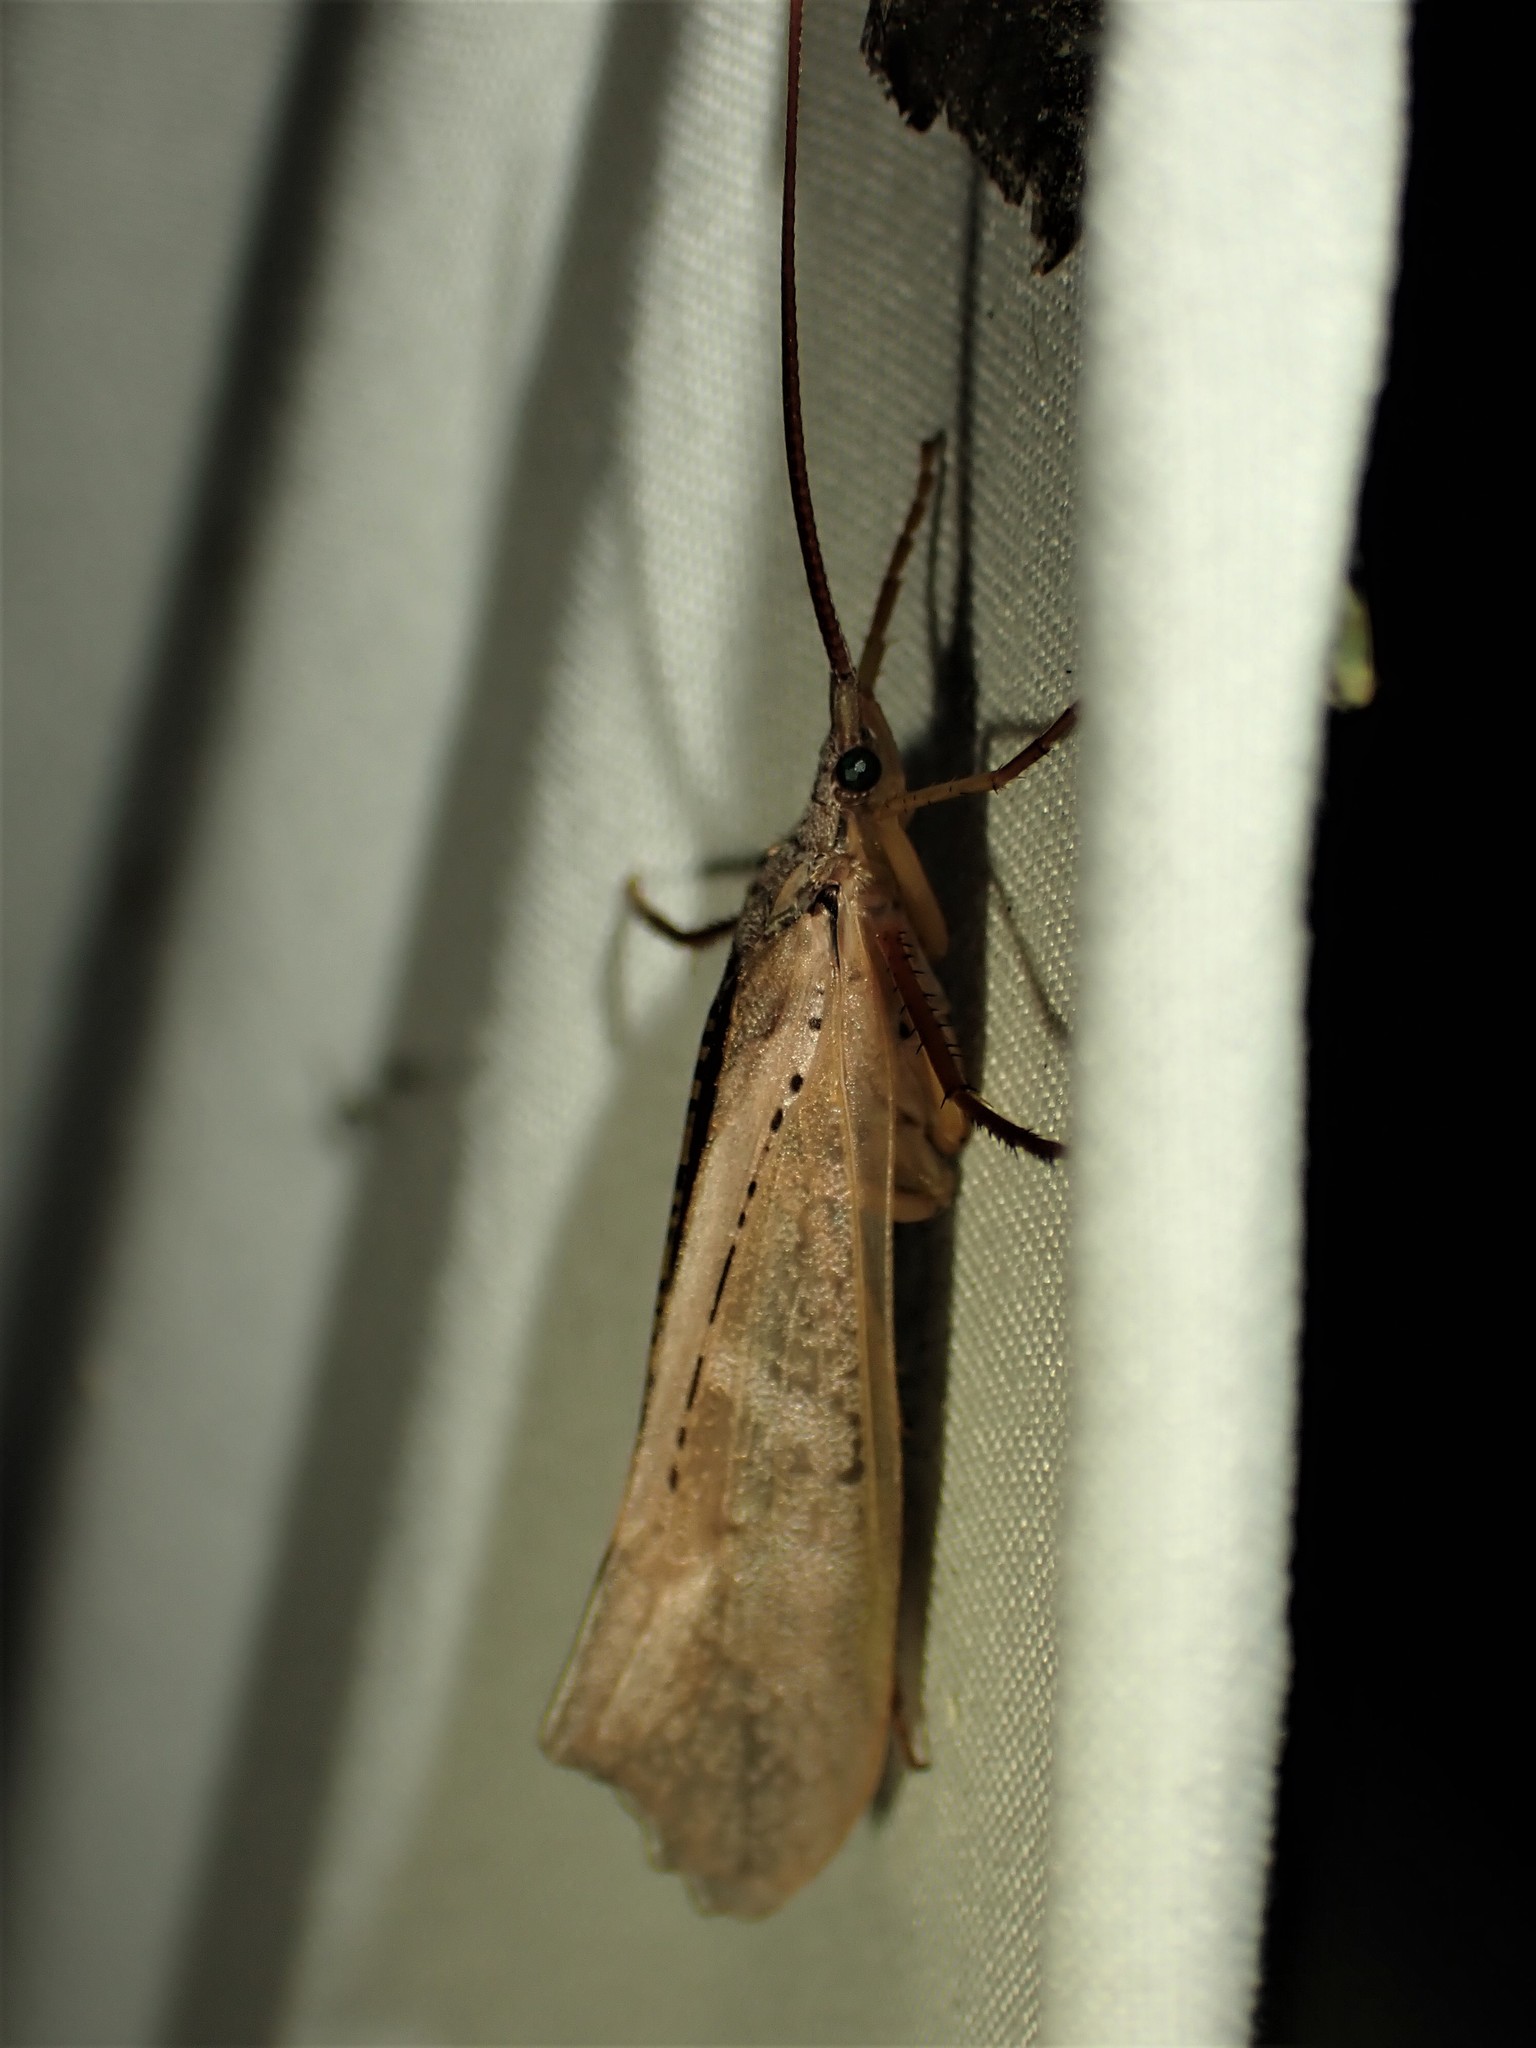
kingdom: Animalia
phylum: Arthropoda
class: Insecta
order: Trichoptera
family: Limnephilidae
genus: Nemotaulius
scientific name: Nemotaulius hostilis
